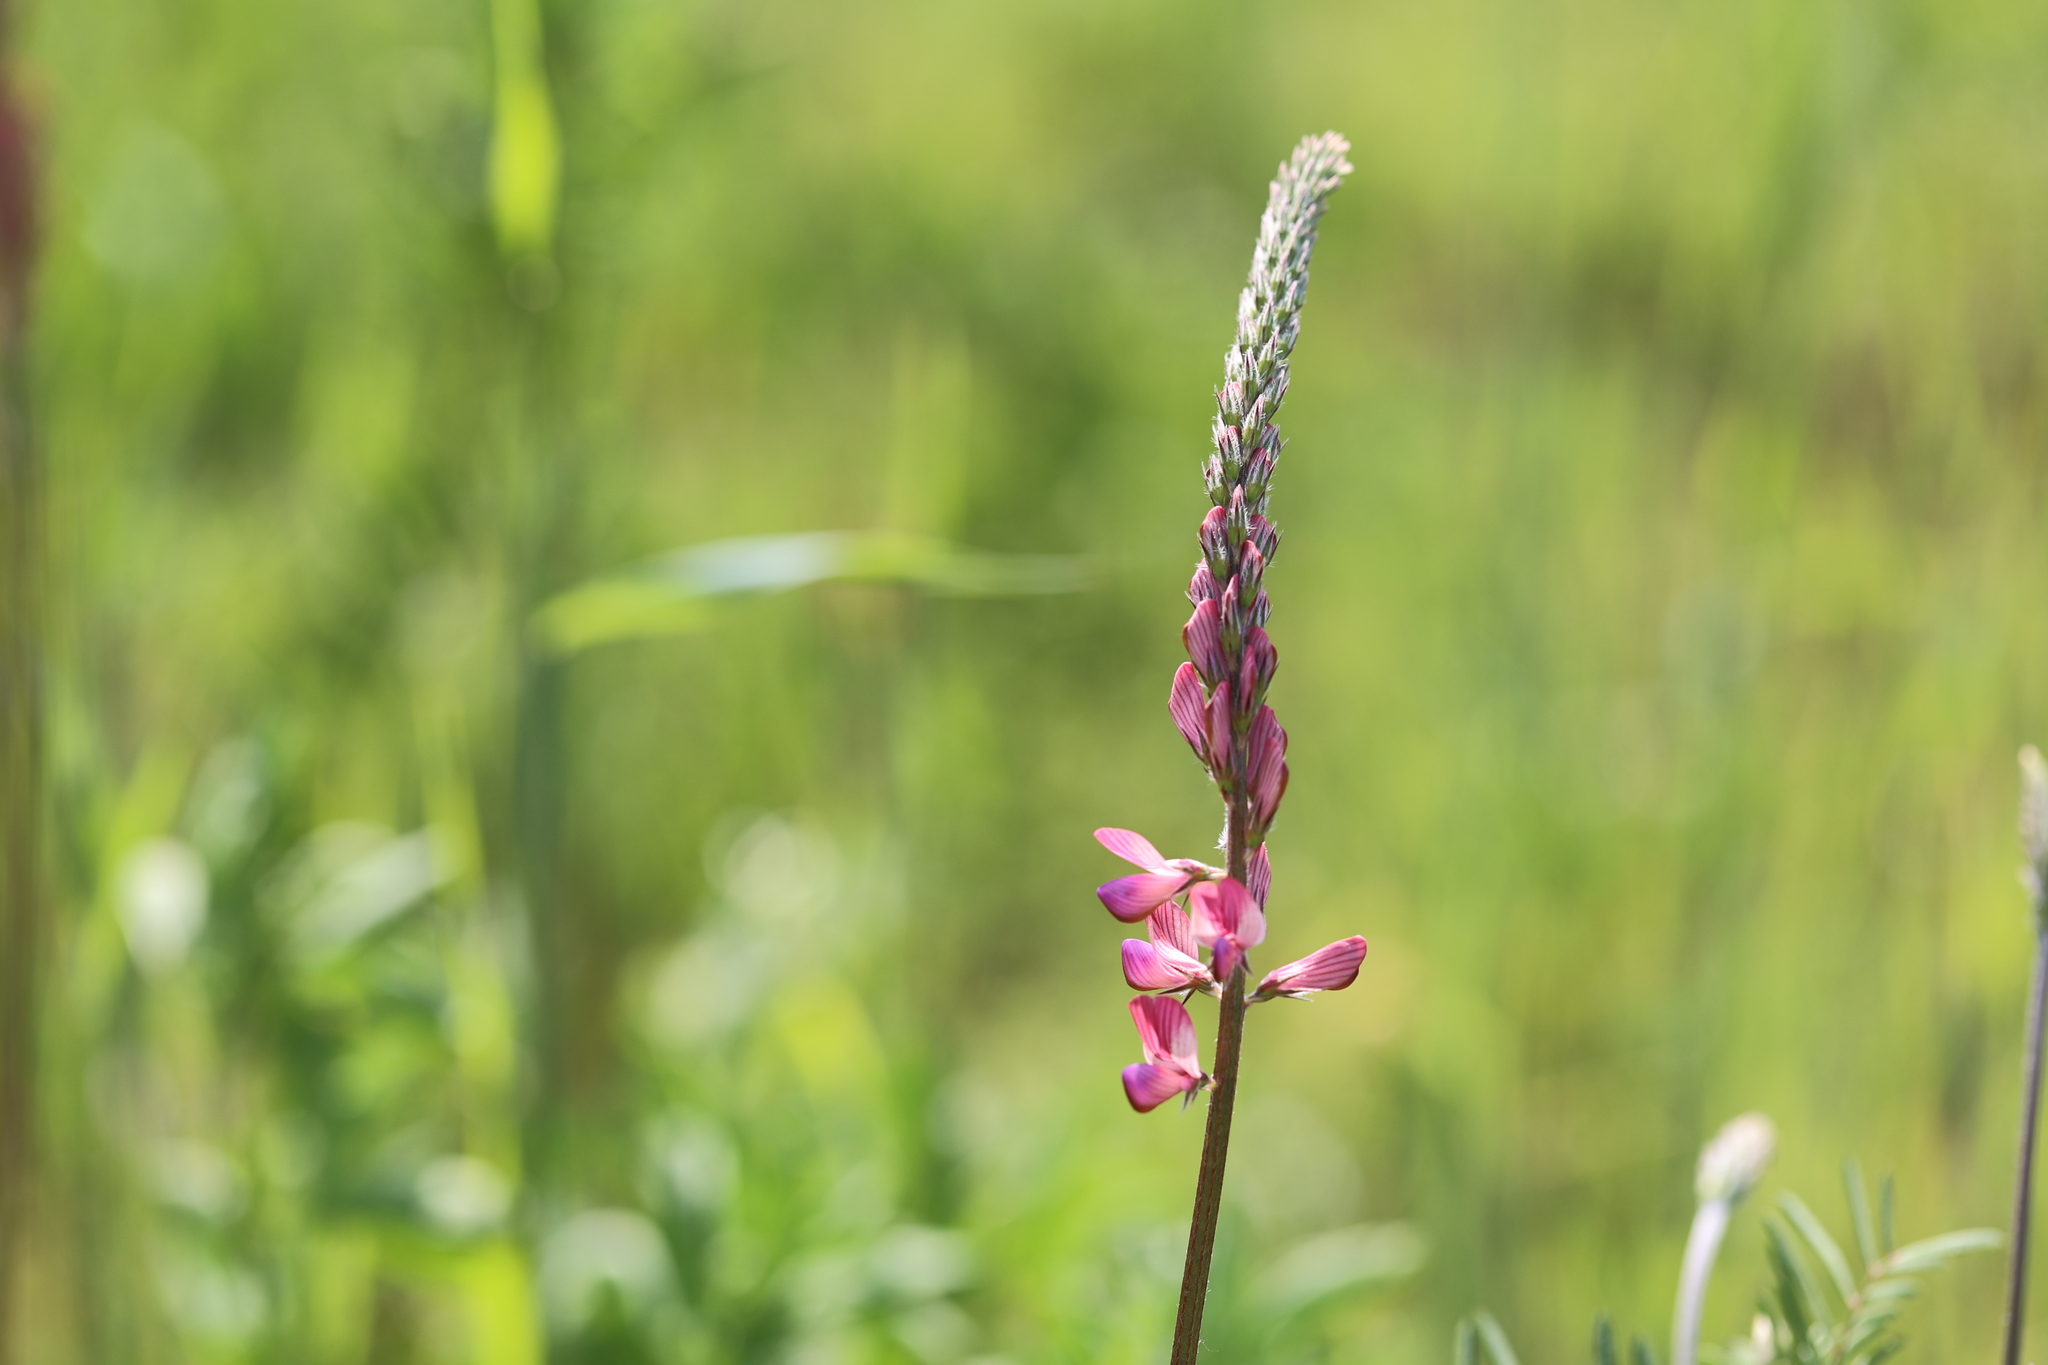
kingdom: Plantae
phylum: Tracheophyta
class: Magnoliopsida
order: Fabales
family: Fabaceae
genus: Onobrychis
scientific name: Onobrychis viciifolia
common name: Sainfoin
